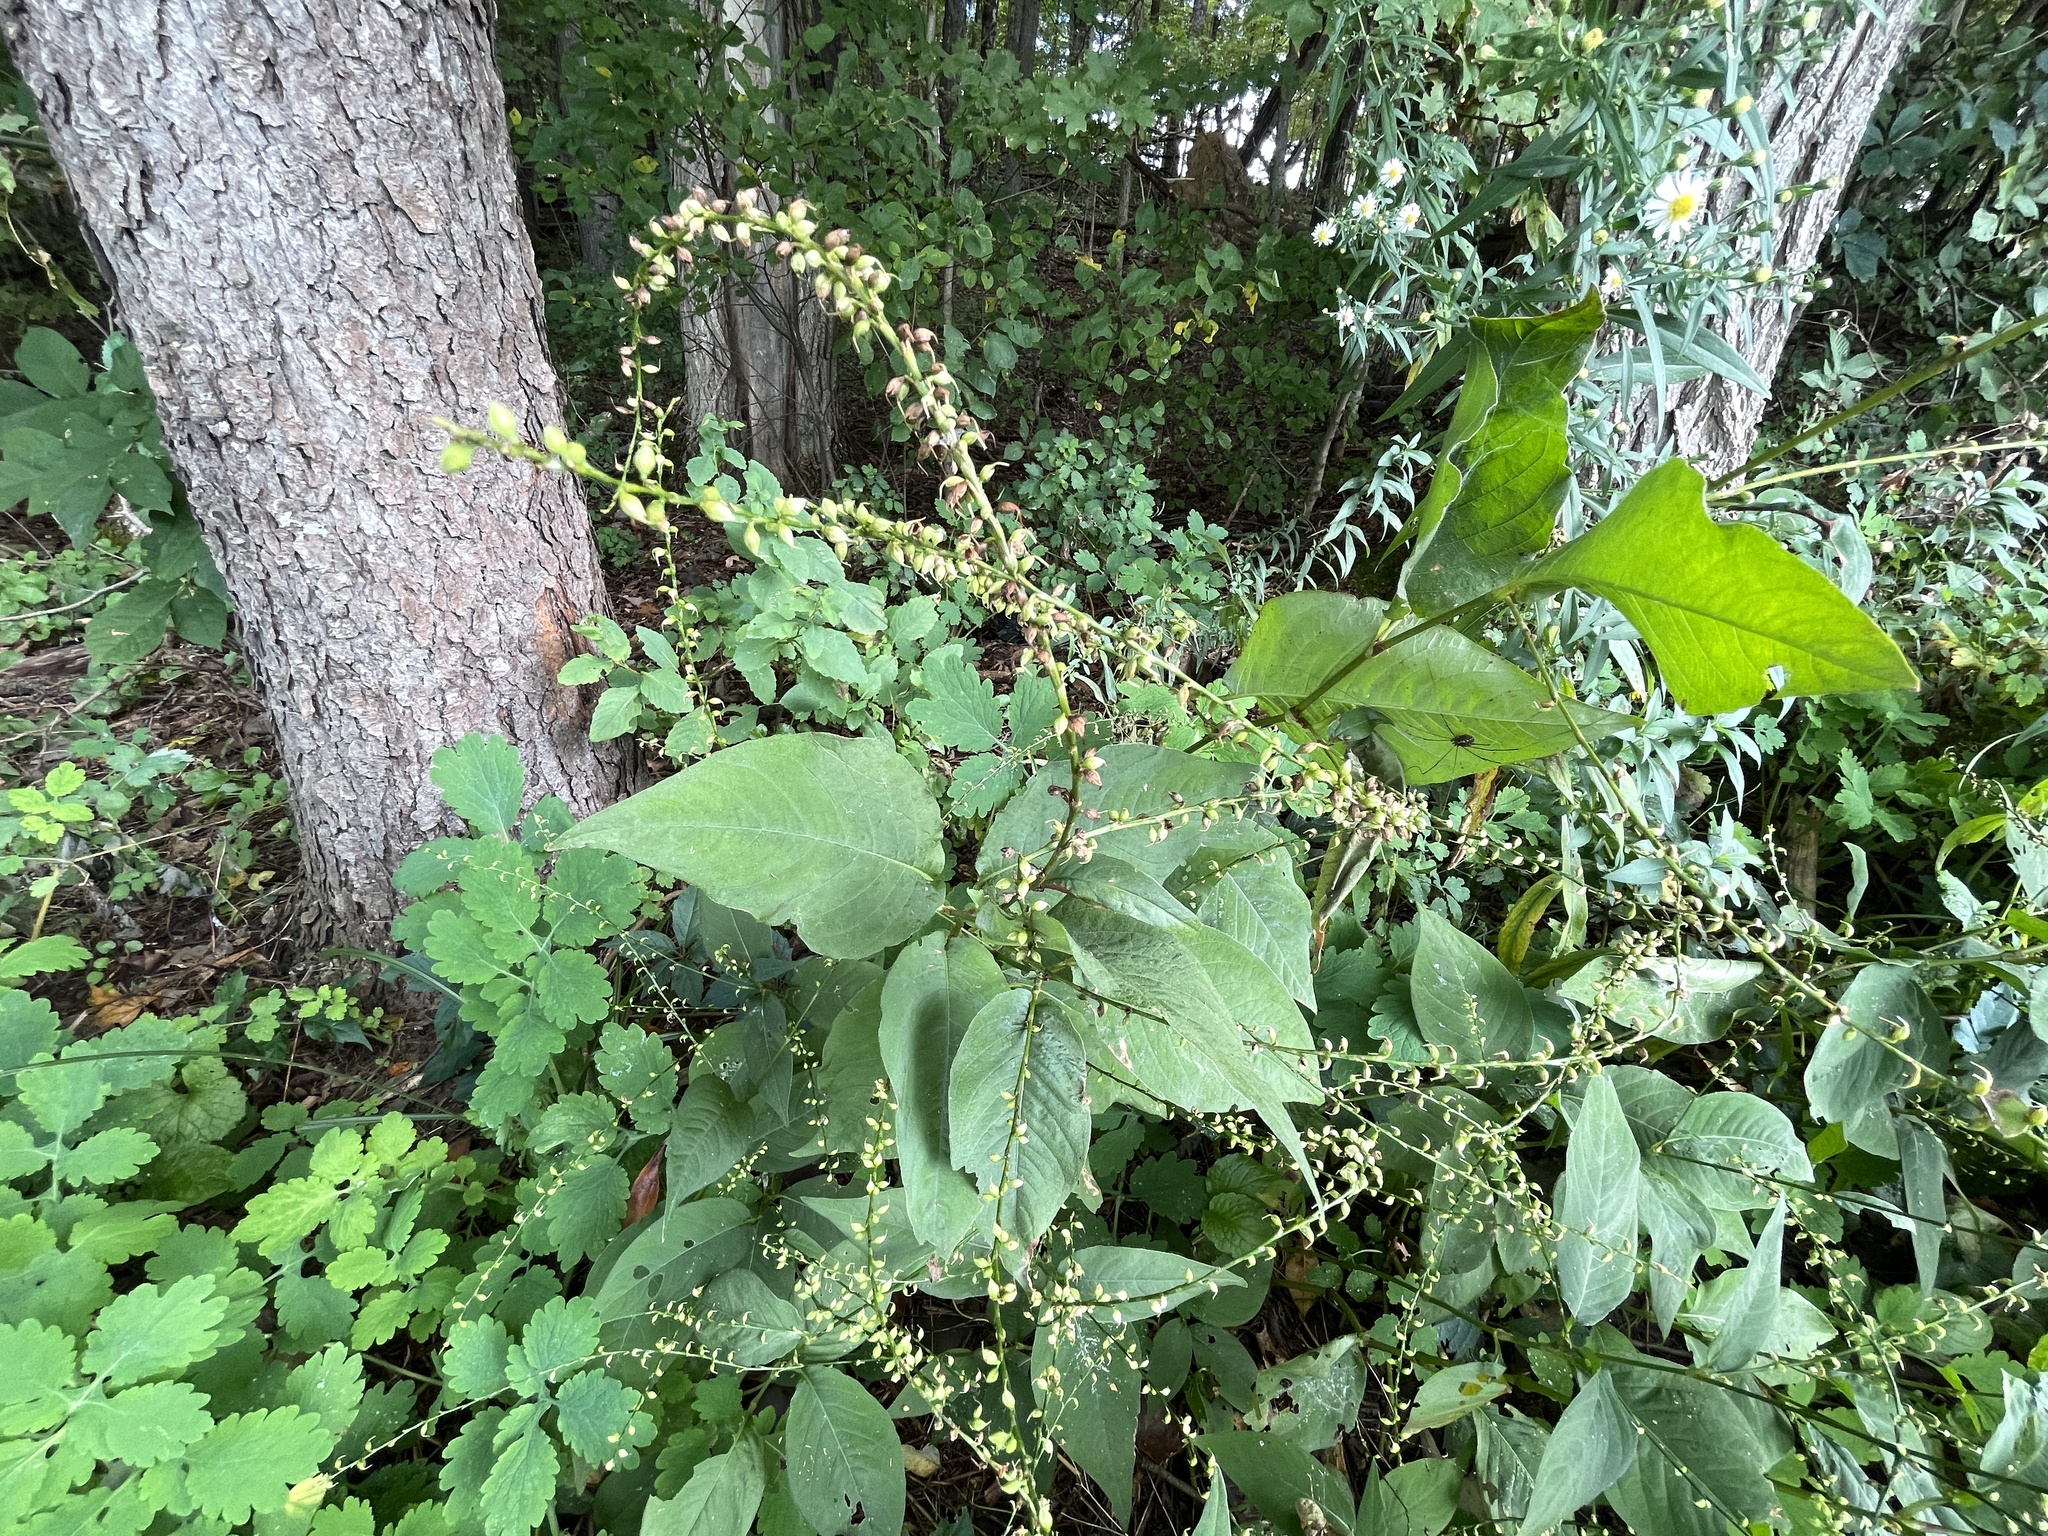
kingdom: Plantae
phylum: Tracheophyta
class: Magnoliopsida
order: Caryophyllales
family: Polygonaceae
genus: Persicaria
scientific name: Persicaria virginiana
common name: Jumpseed
